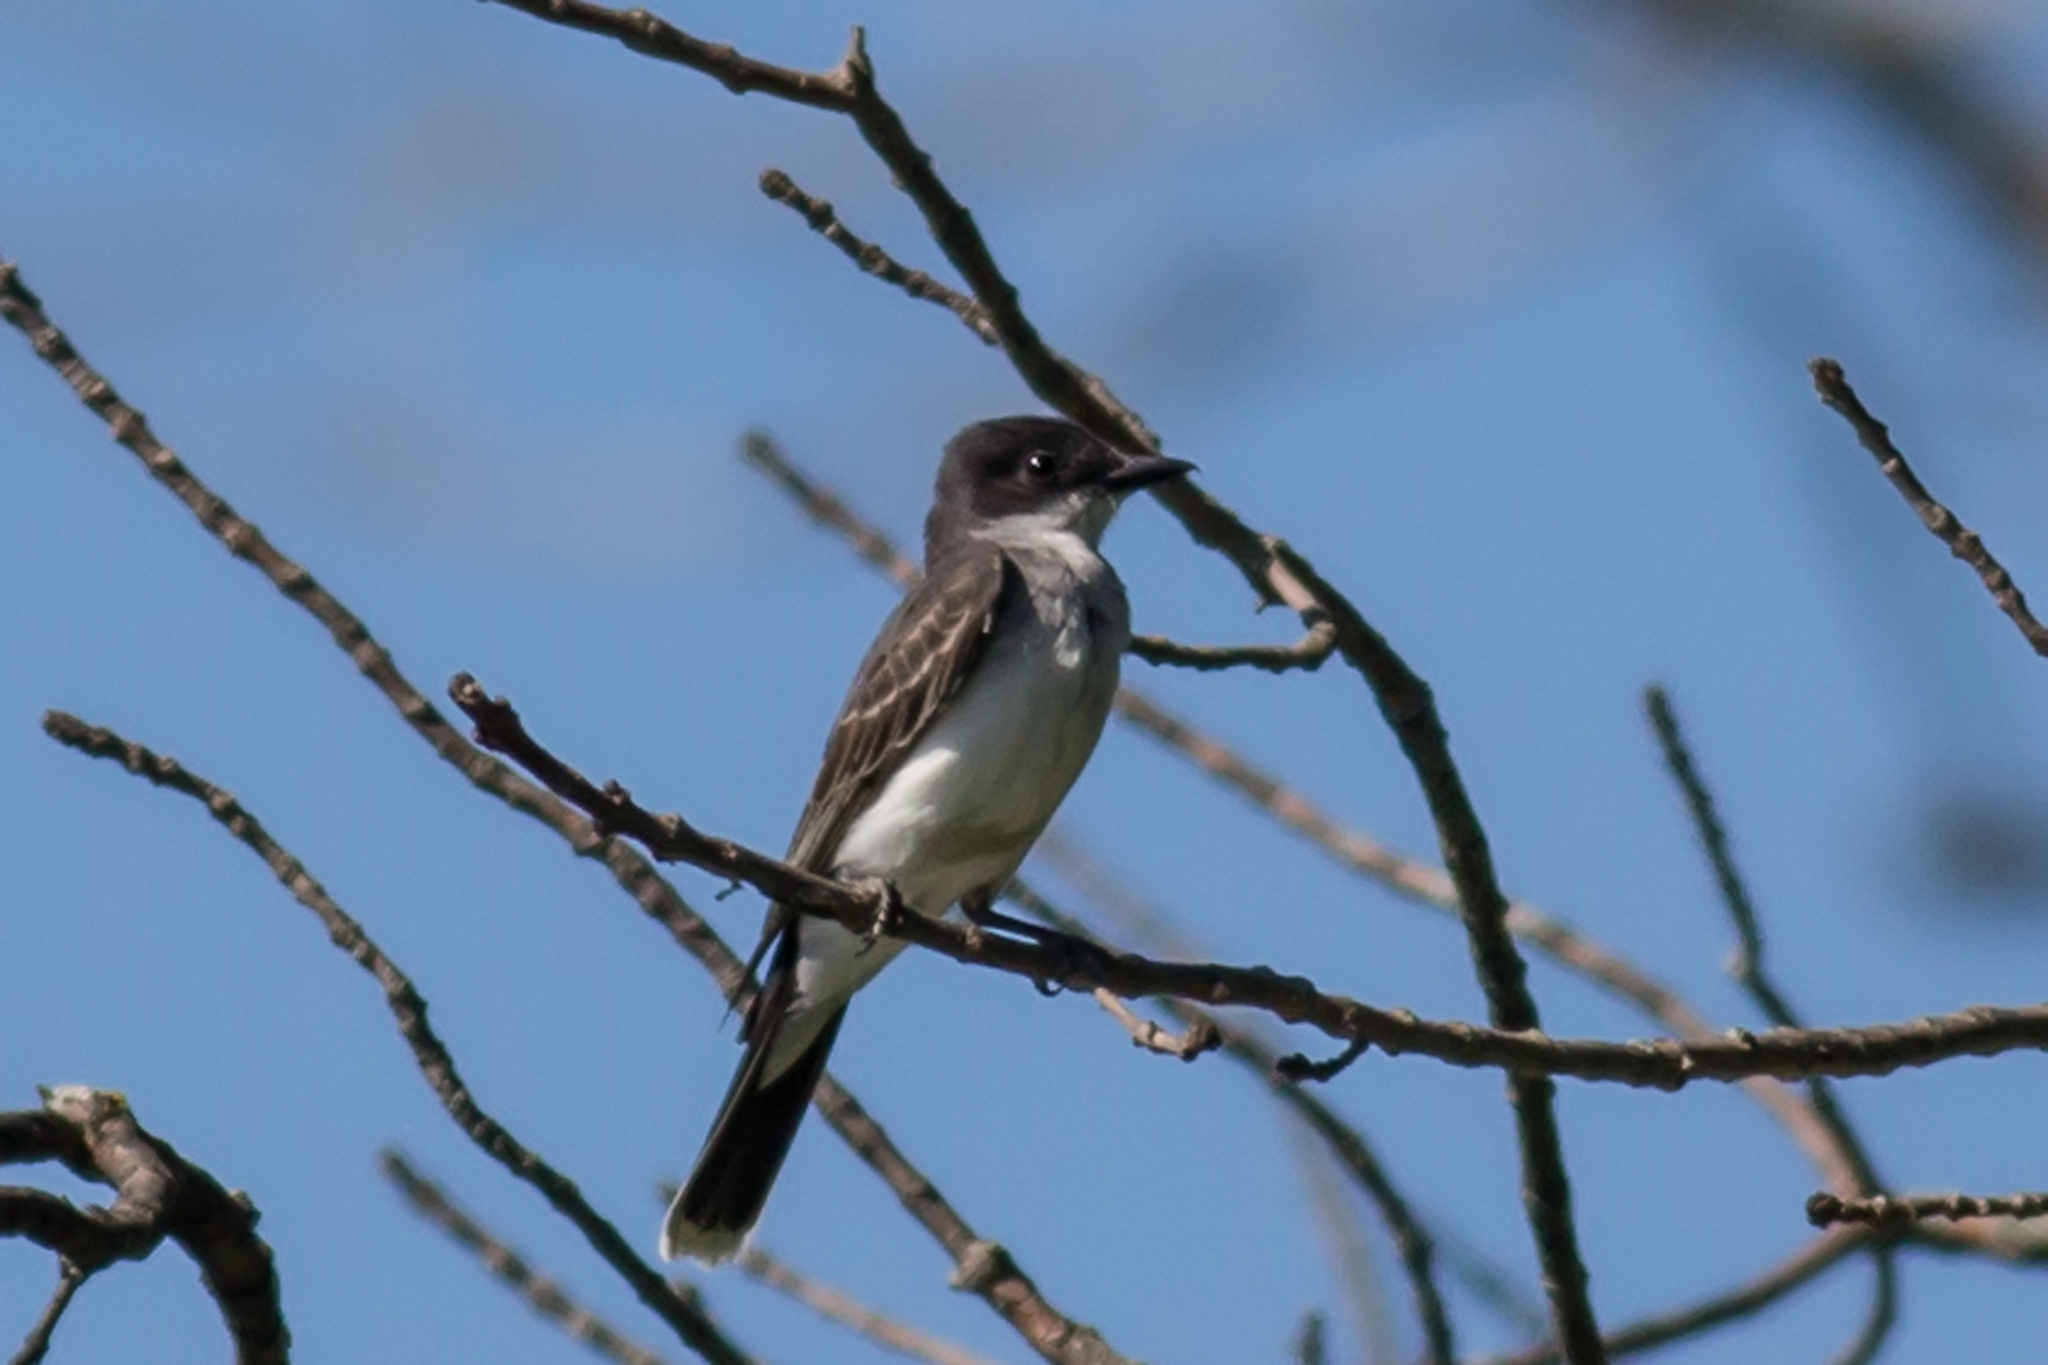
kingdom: Animalia
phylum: Chordata
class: Aves
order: Passeriformes
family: Tyrannidae
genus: Tyrannus
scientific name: Tyrannus tyrannus
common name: Eastern kingbird
